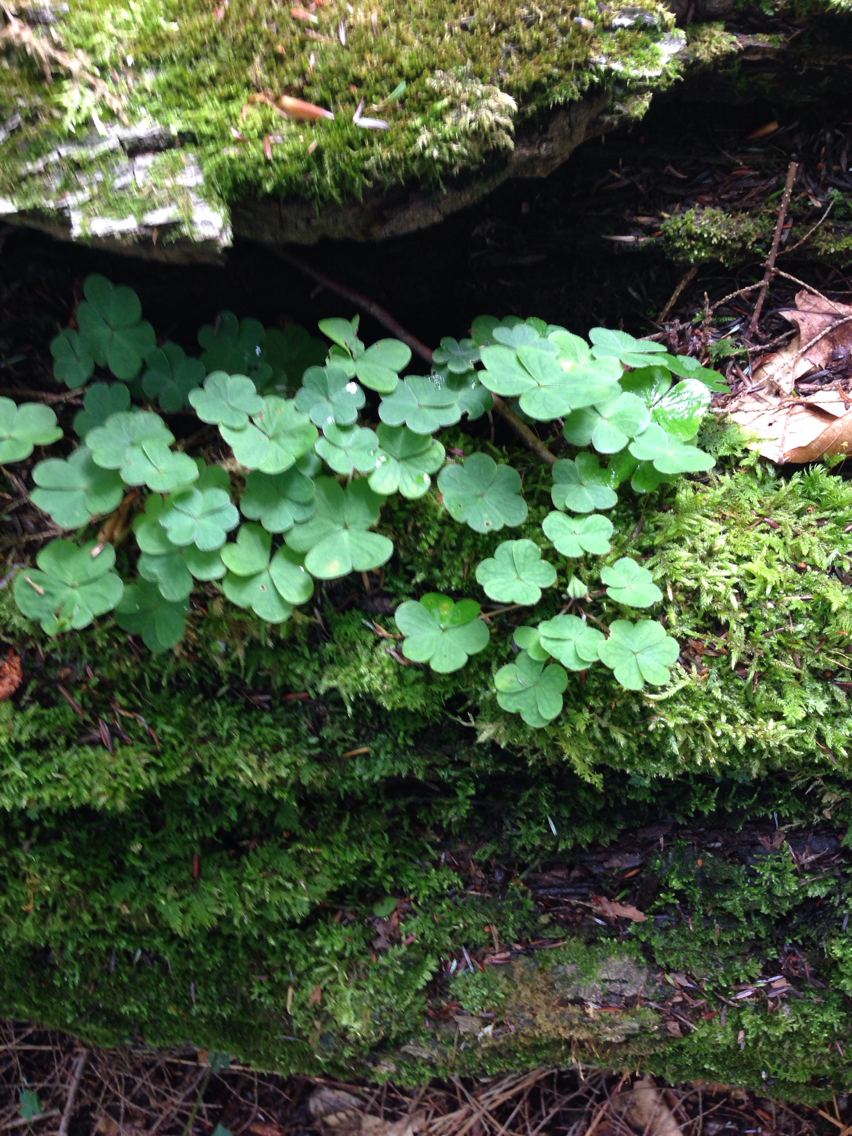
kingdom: Plantae
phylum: Tracheophyta
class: Magnoliopsida
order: Oxalidales
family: Oxalidaceae
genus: Oxalis
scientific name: Oxalis montana
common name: American wood-sorrel
